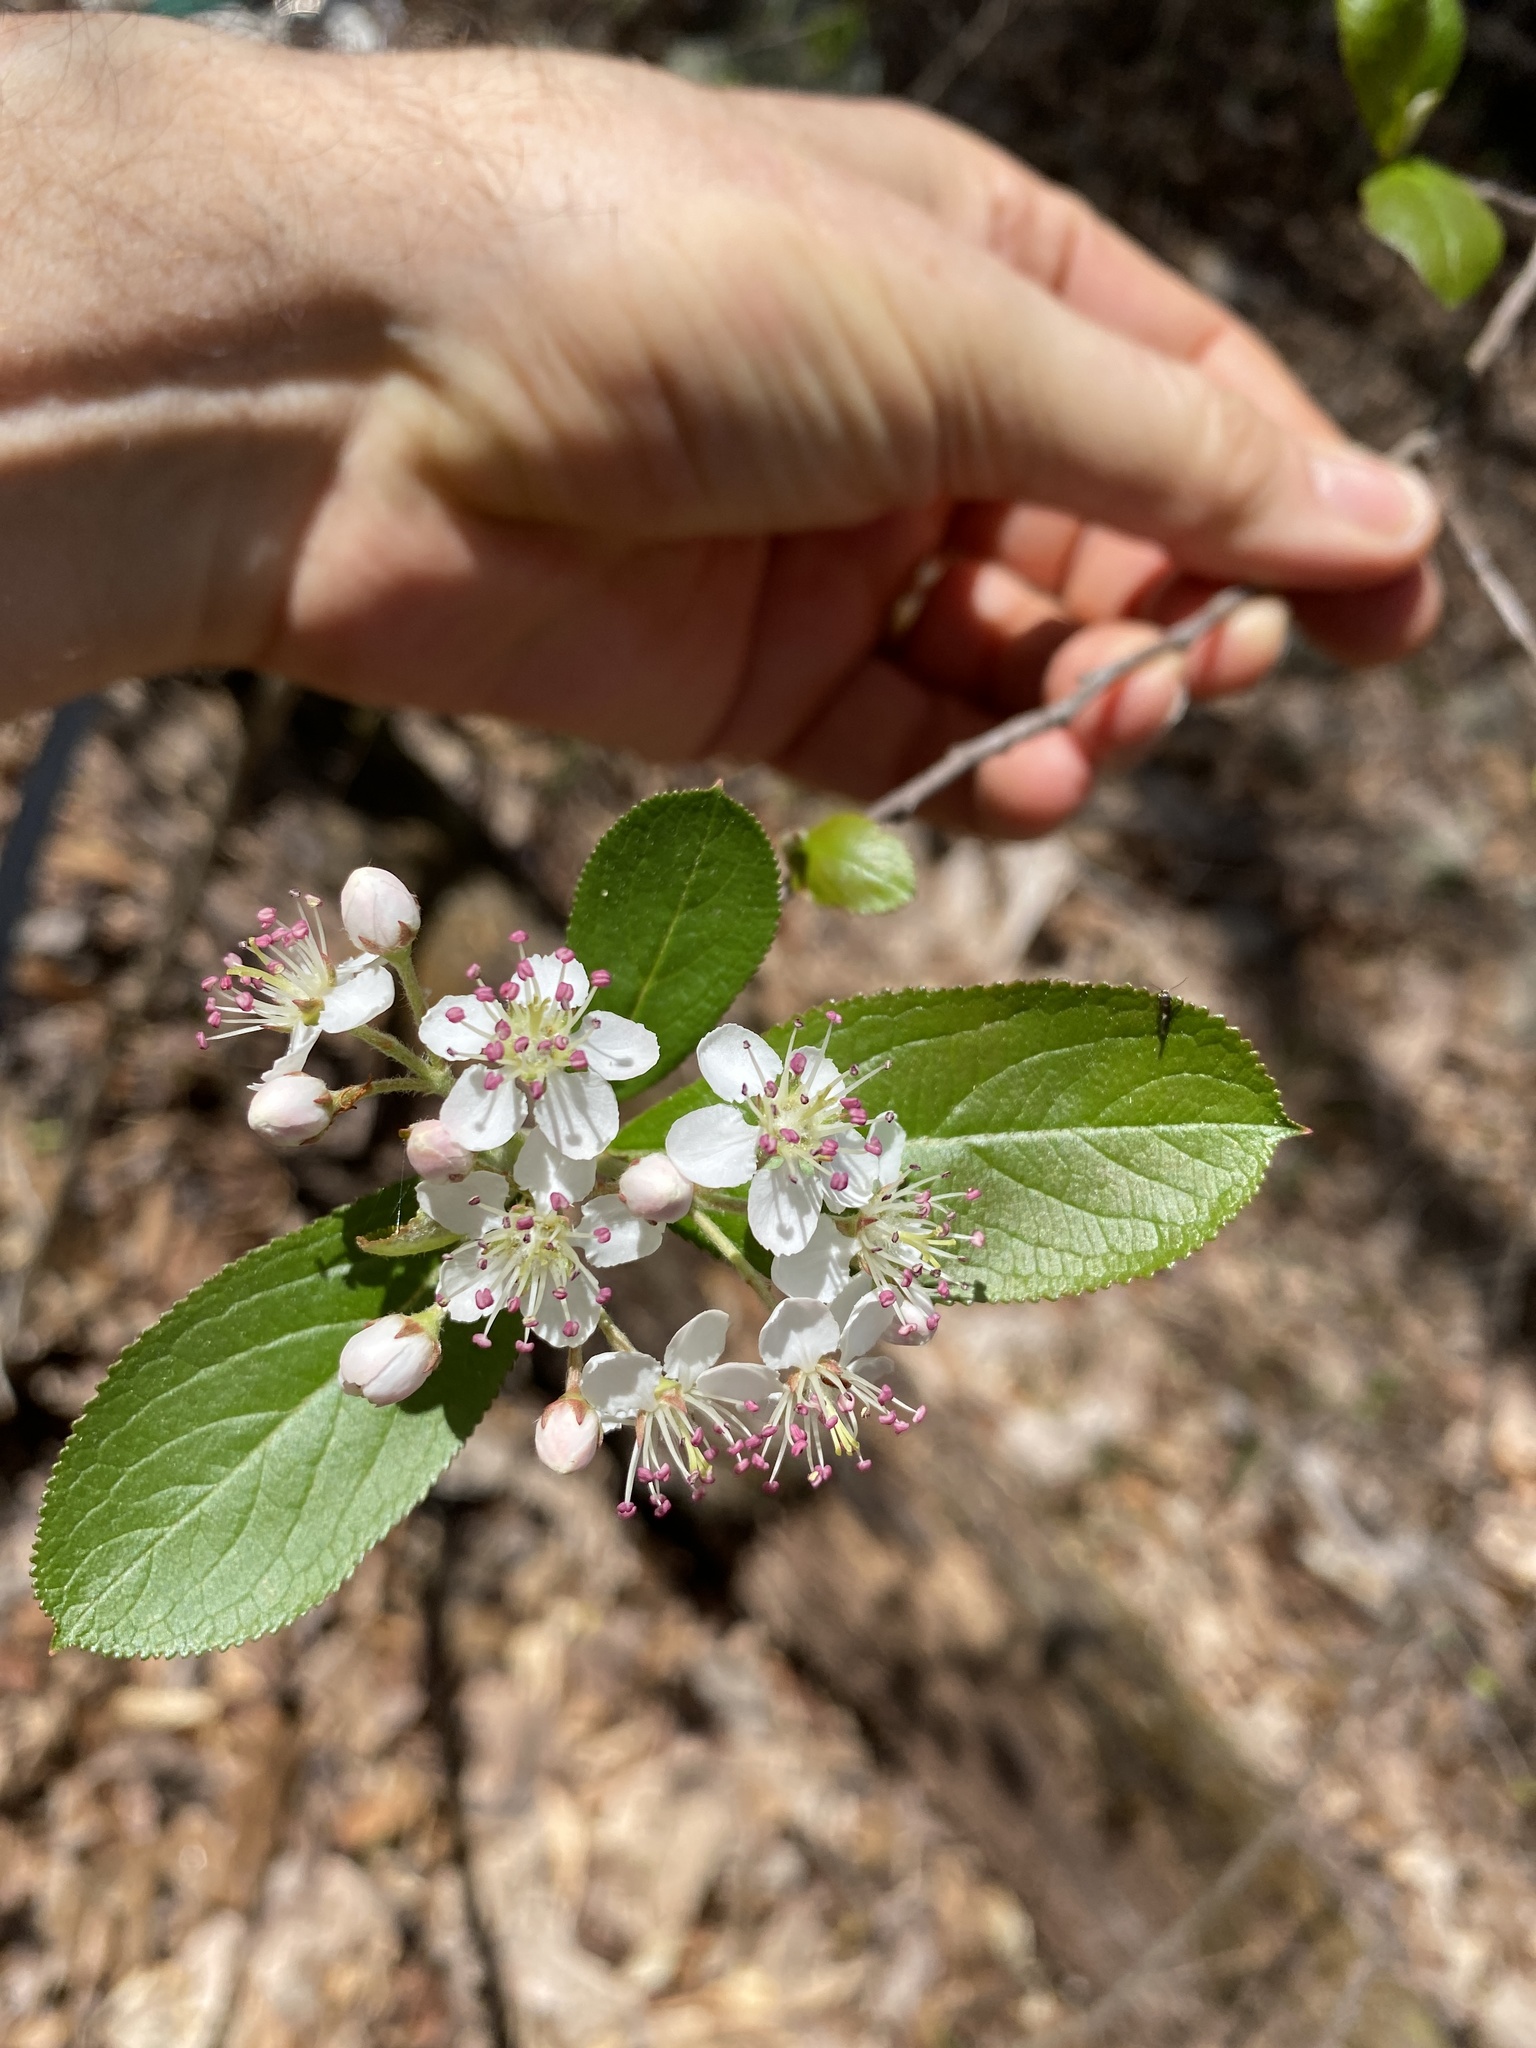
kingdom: Plantae
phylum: Tracheophyta
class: Magnoliopsida
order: Rosales
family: Rosaceae
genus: Aronia
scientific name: Aronia arbutifolia
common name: Red chokeberry
